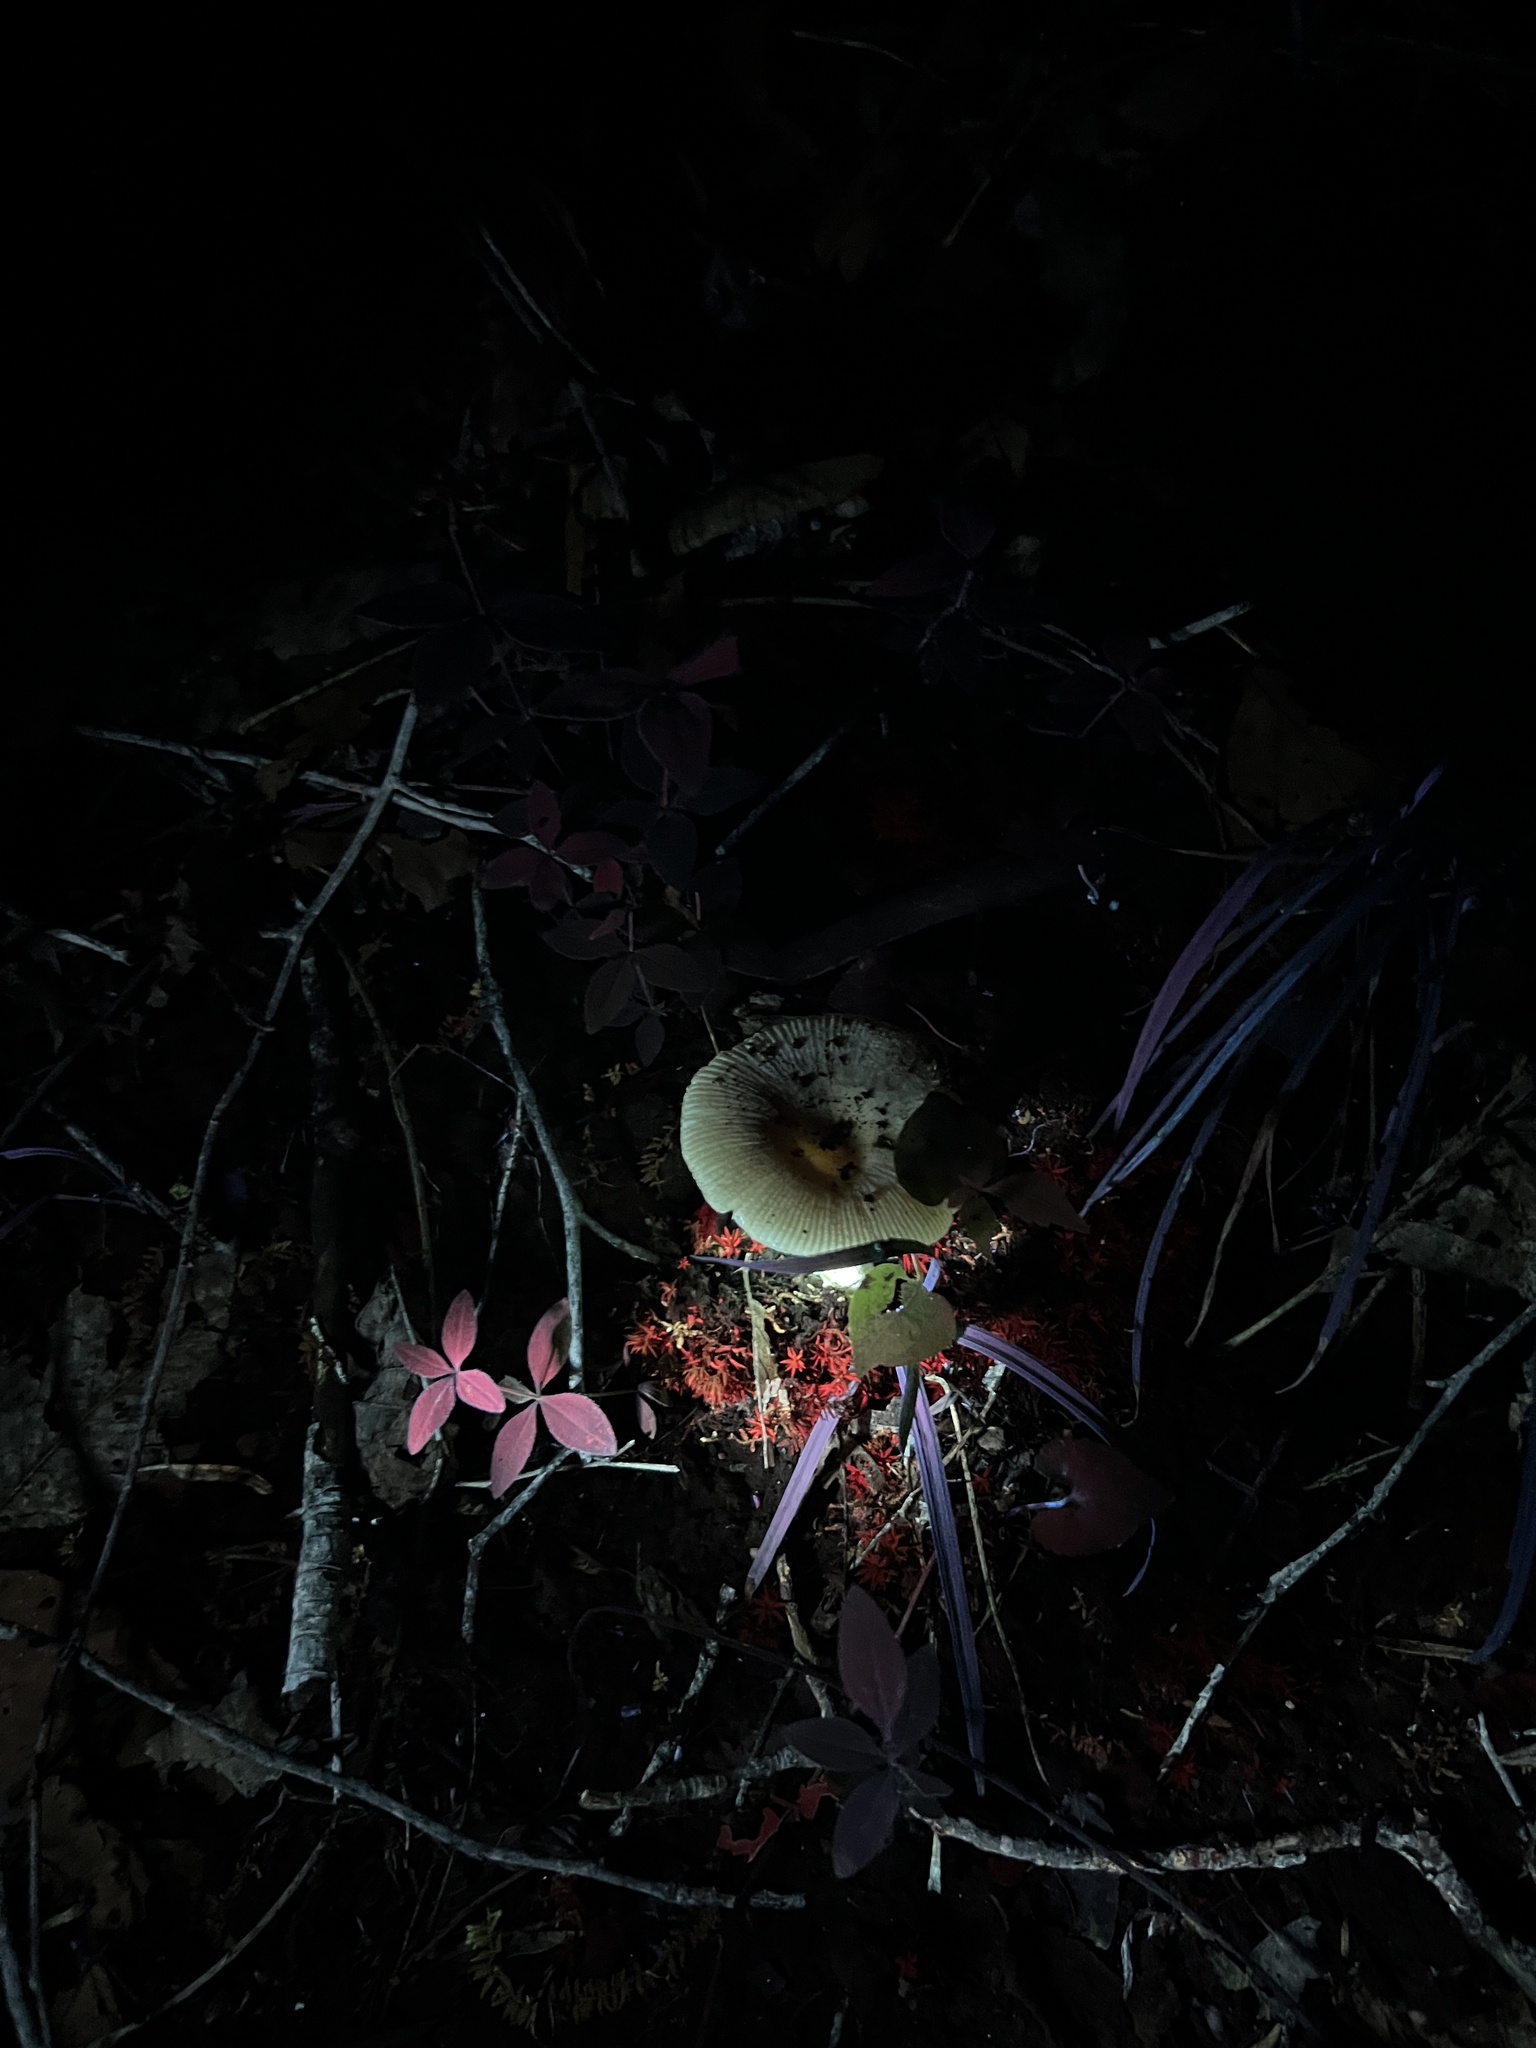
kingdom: Fungi
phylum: Basidiomycota
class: Agaricomycetes
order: Russulales
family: Russulaceae
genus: Russula
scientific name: Russula pectinatoides
